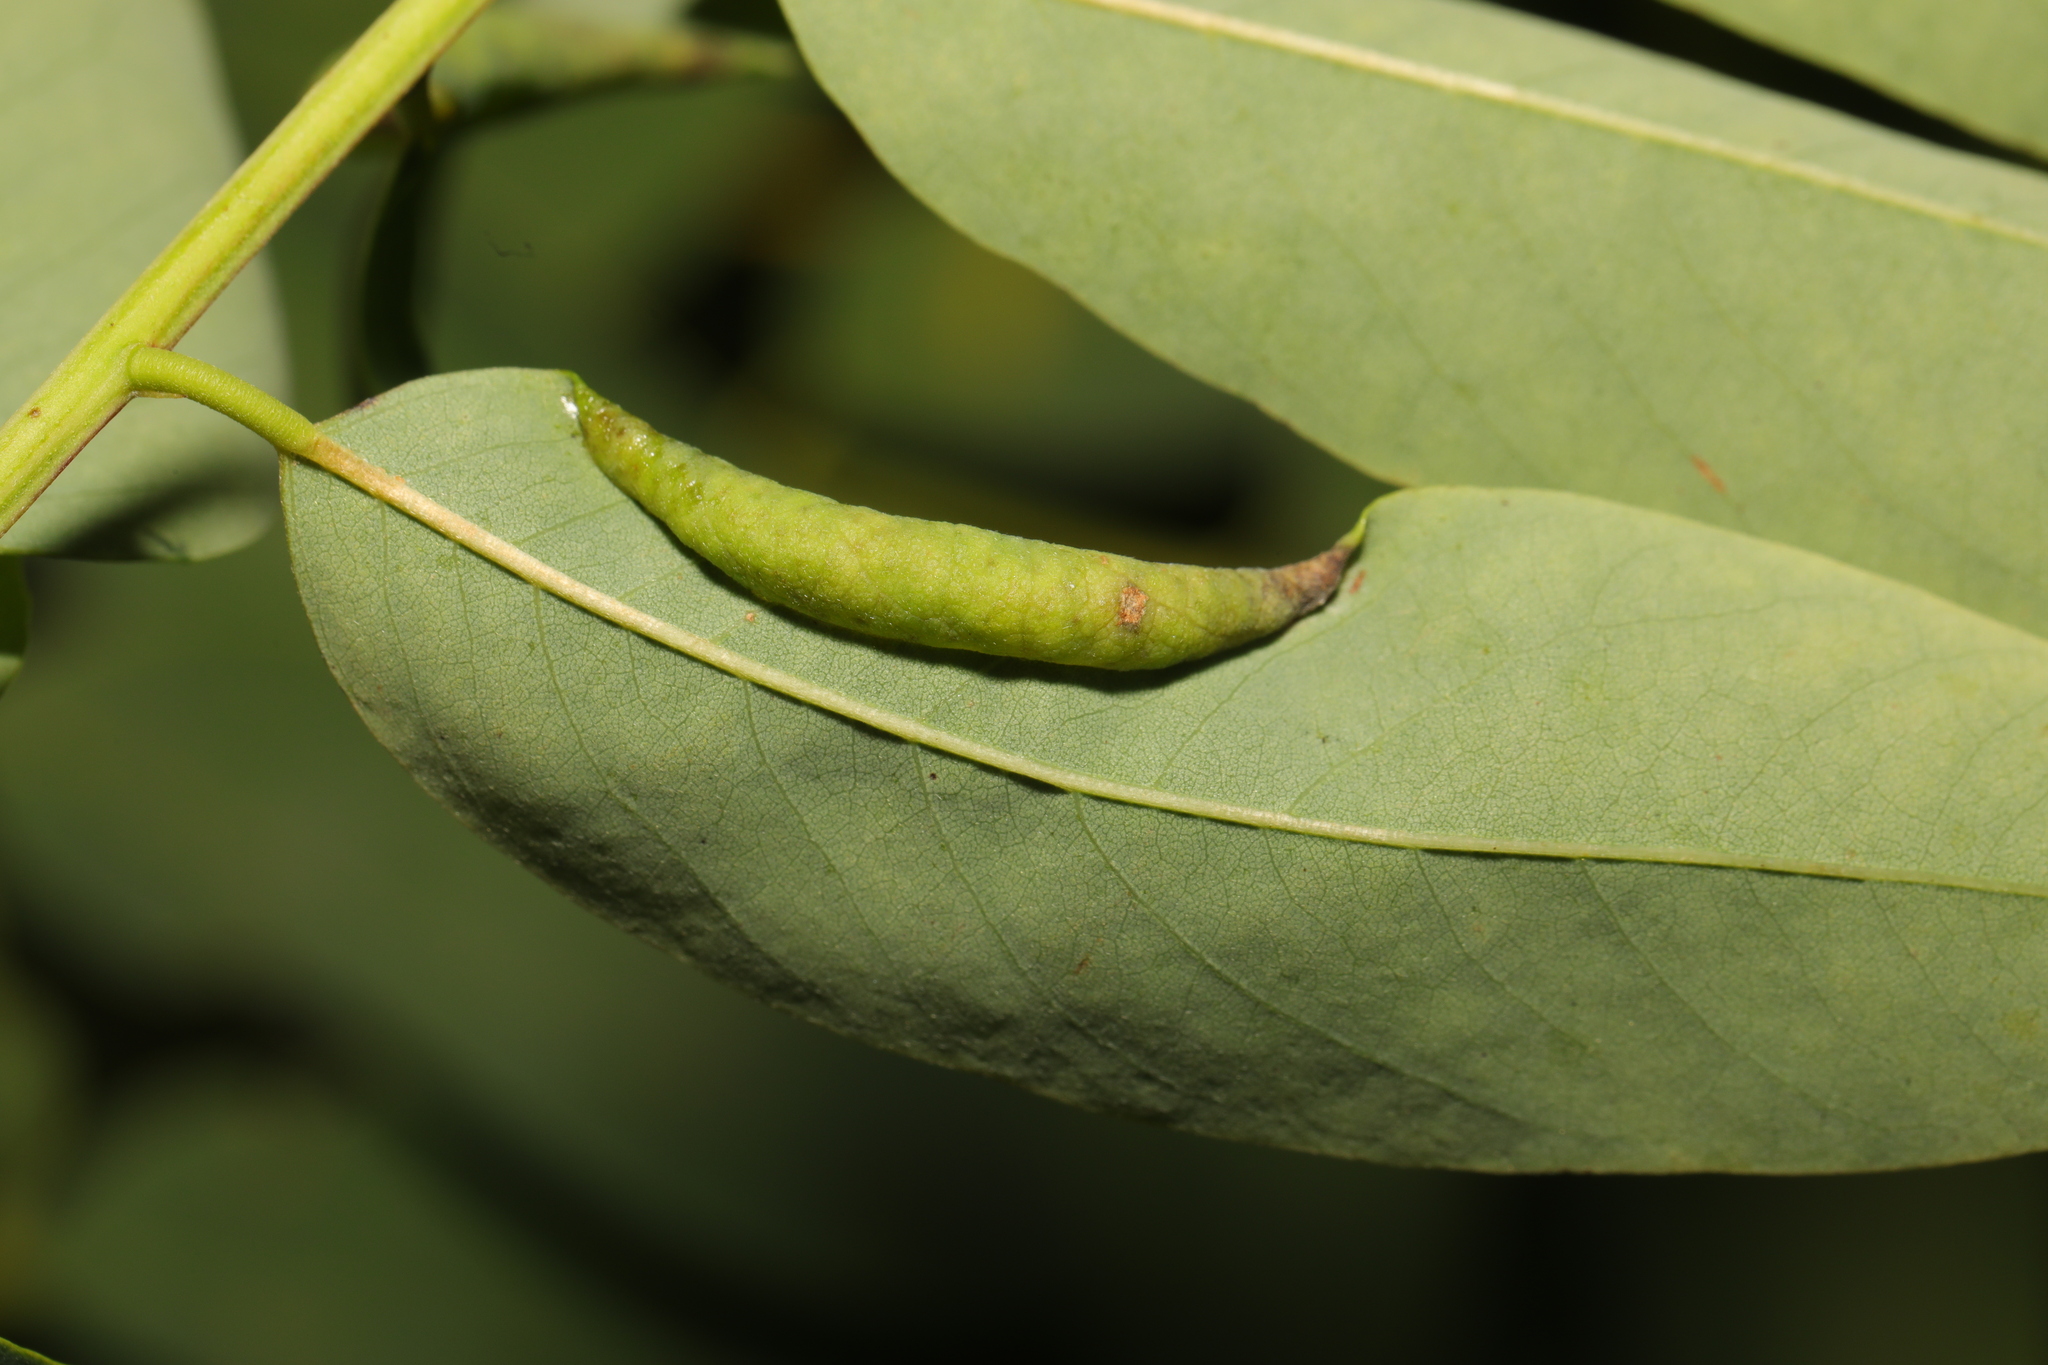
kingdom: Animalia
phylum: Arthropoda
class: Insecta
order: Diptera
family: Cecidomyiidae
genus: Obolodiplosis
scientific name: Obolodiplosis robiniae
